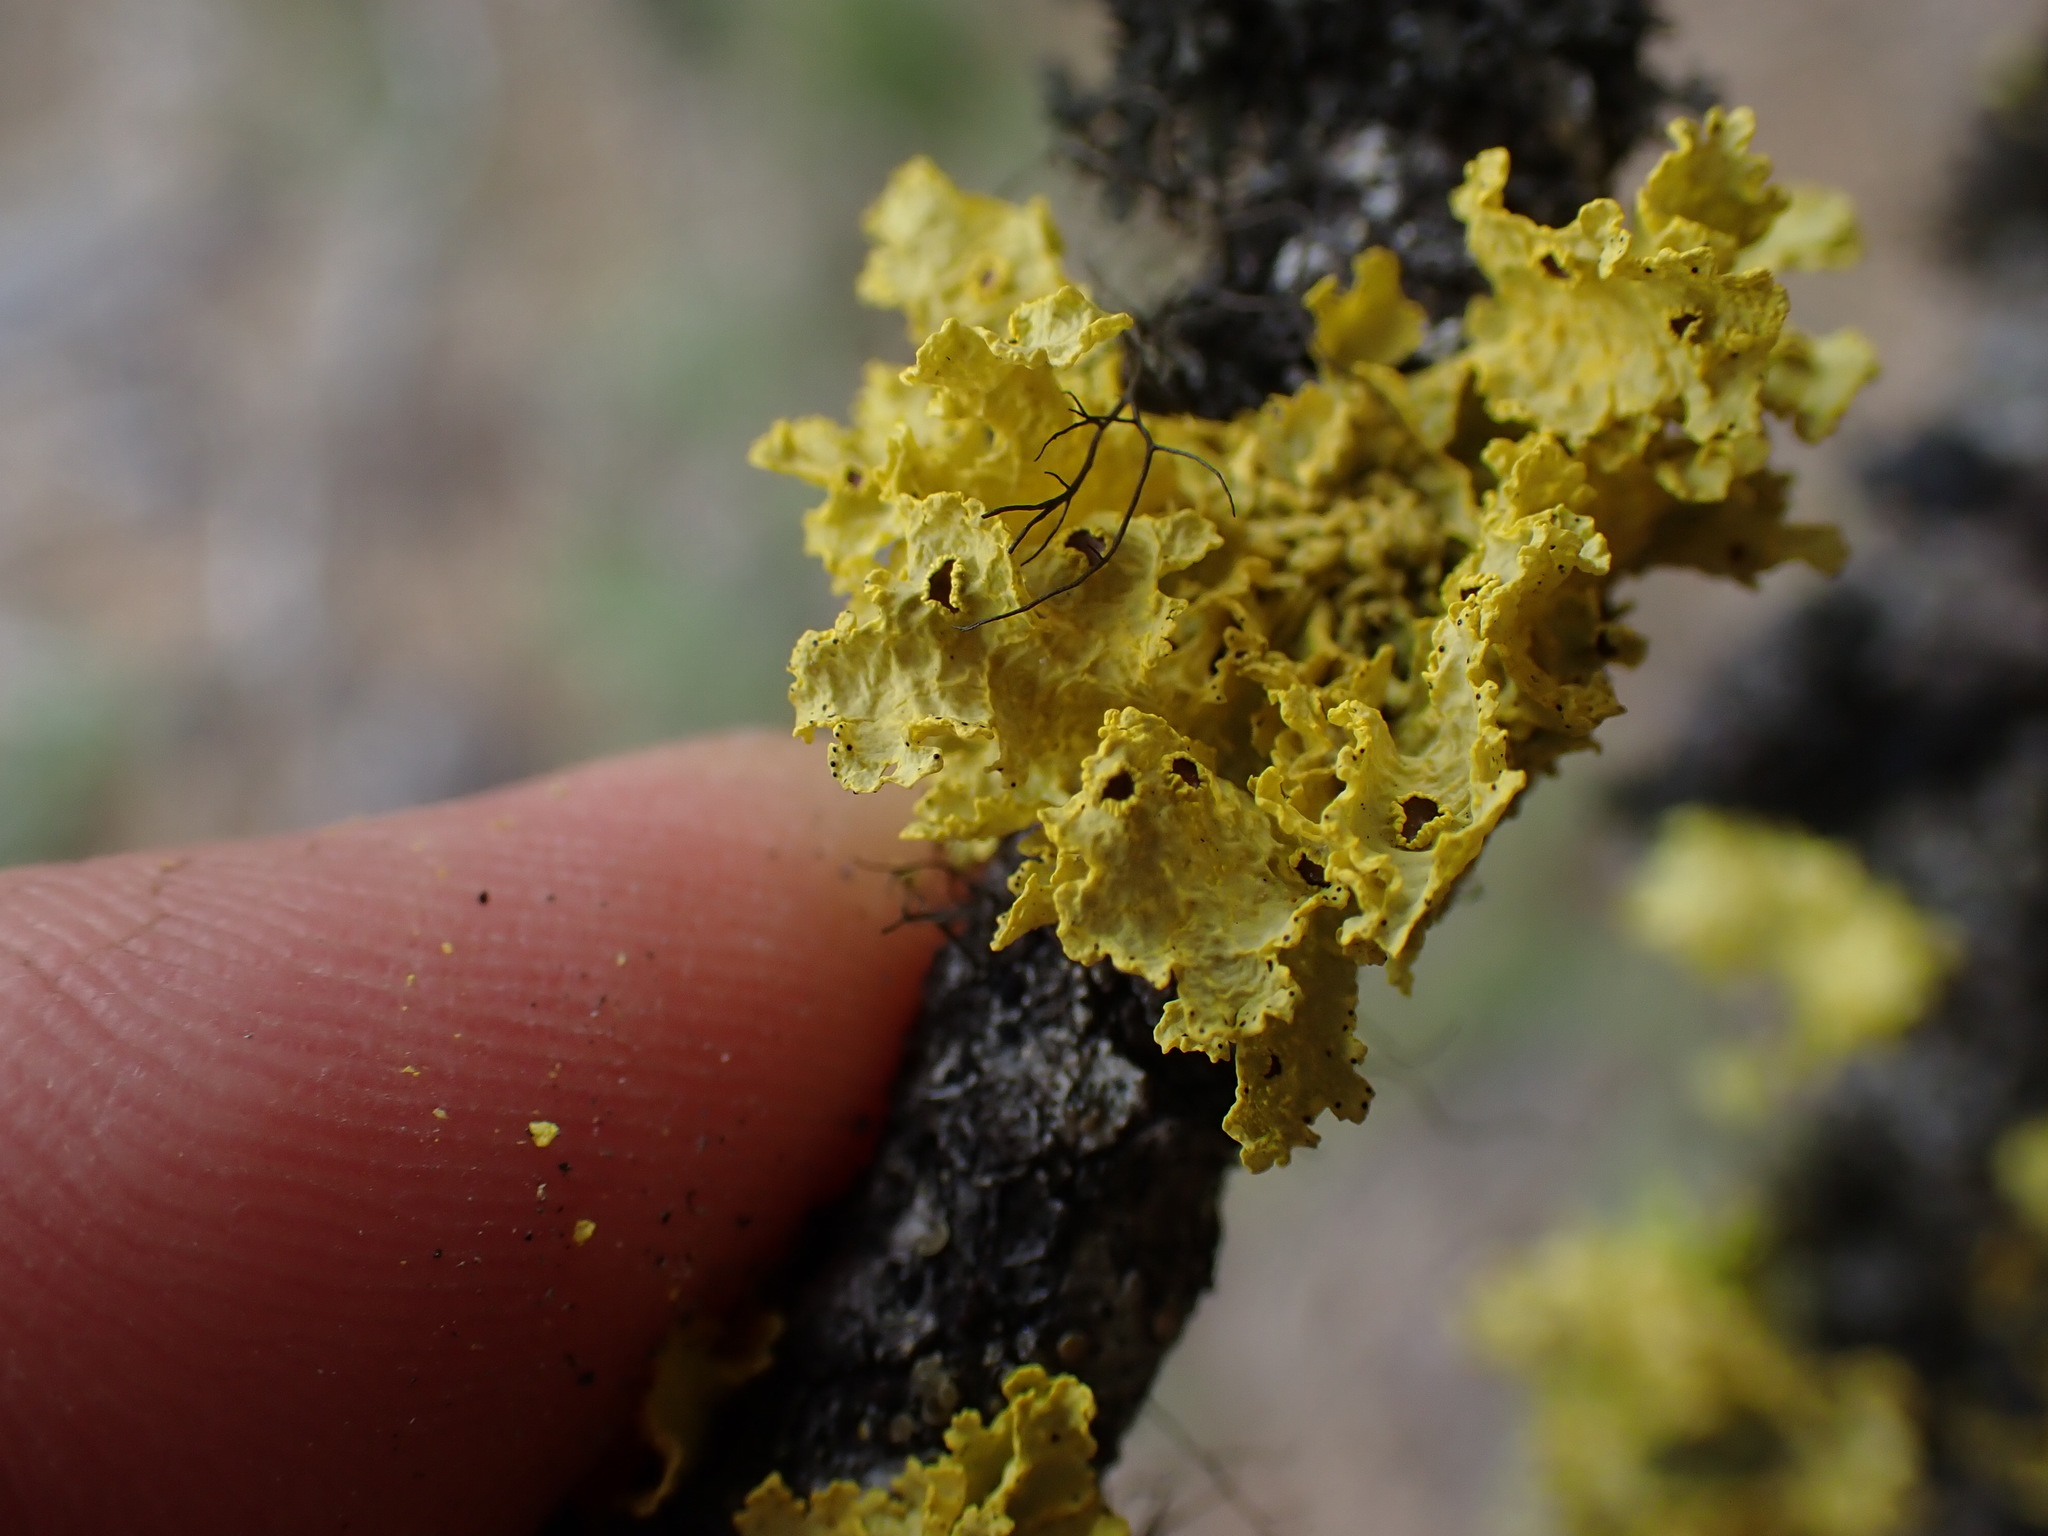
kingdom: Fungi
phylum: Ascomycota
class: Lecanoromycetes
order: Lecanorales
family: Parmeliaceae
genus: Vulpicida
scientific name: Vulpicida canadensis
